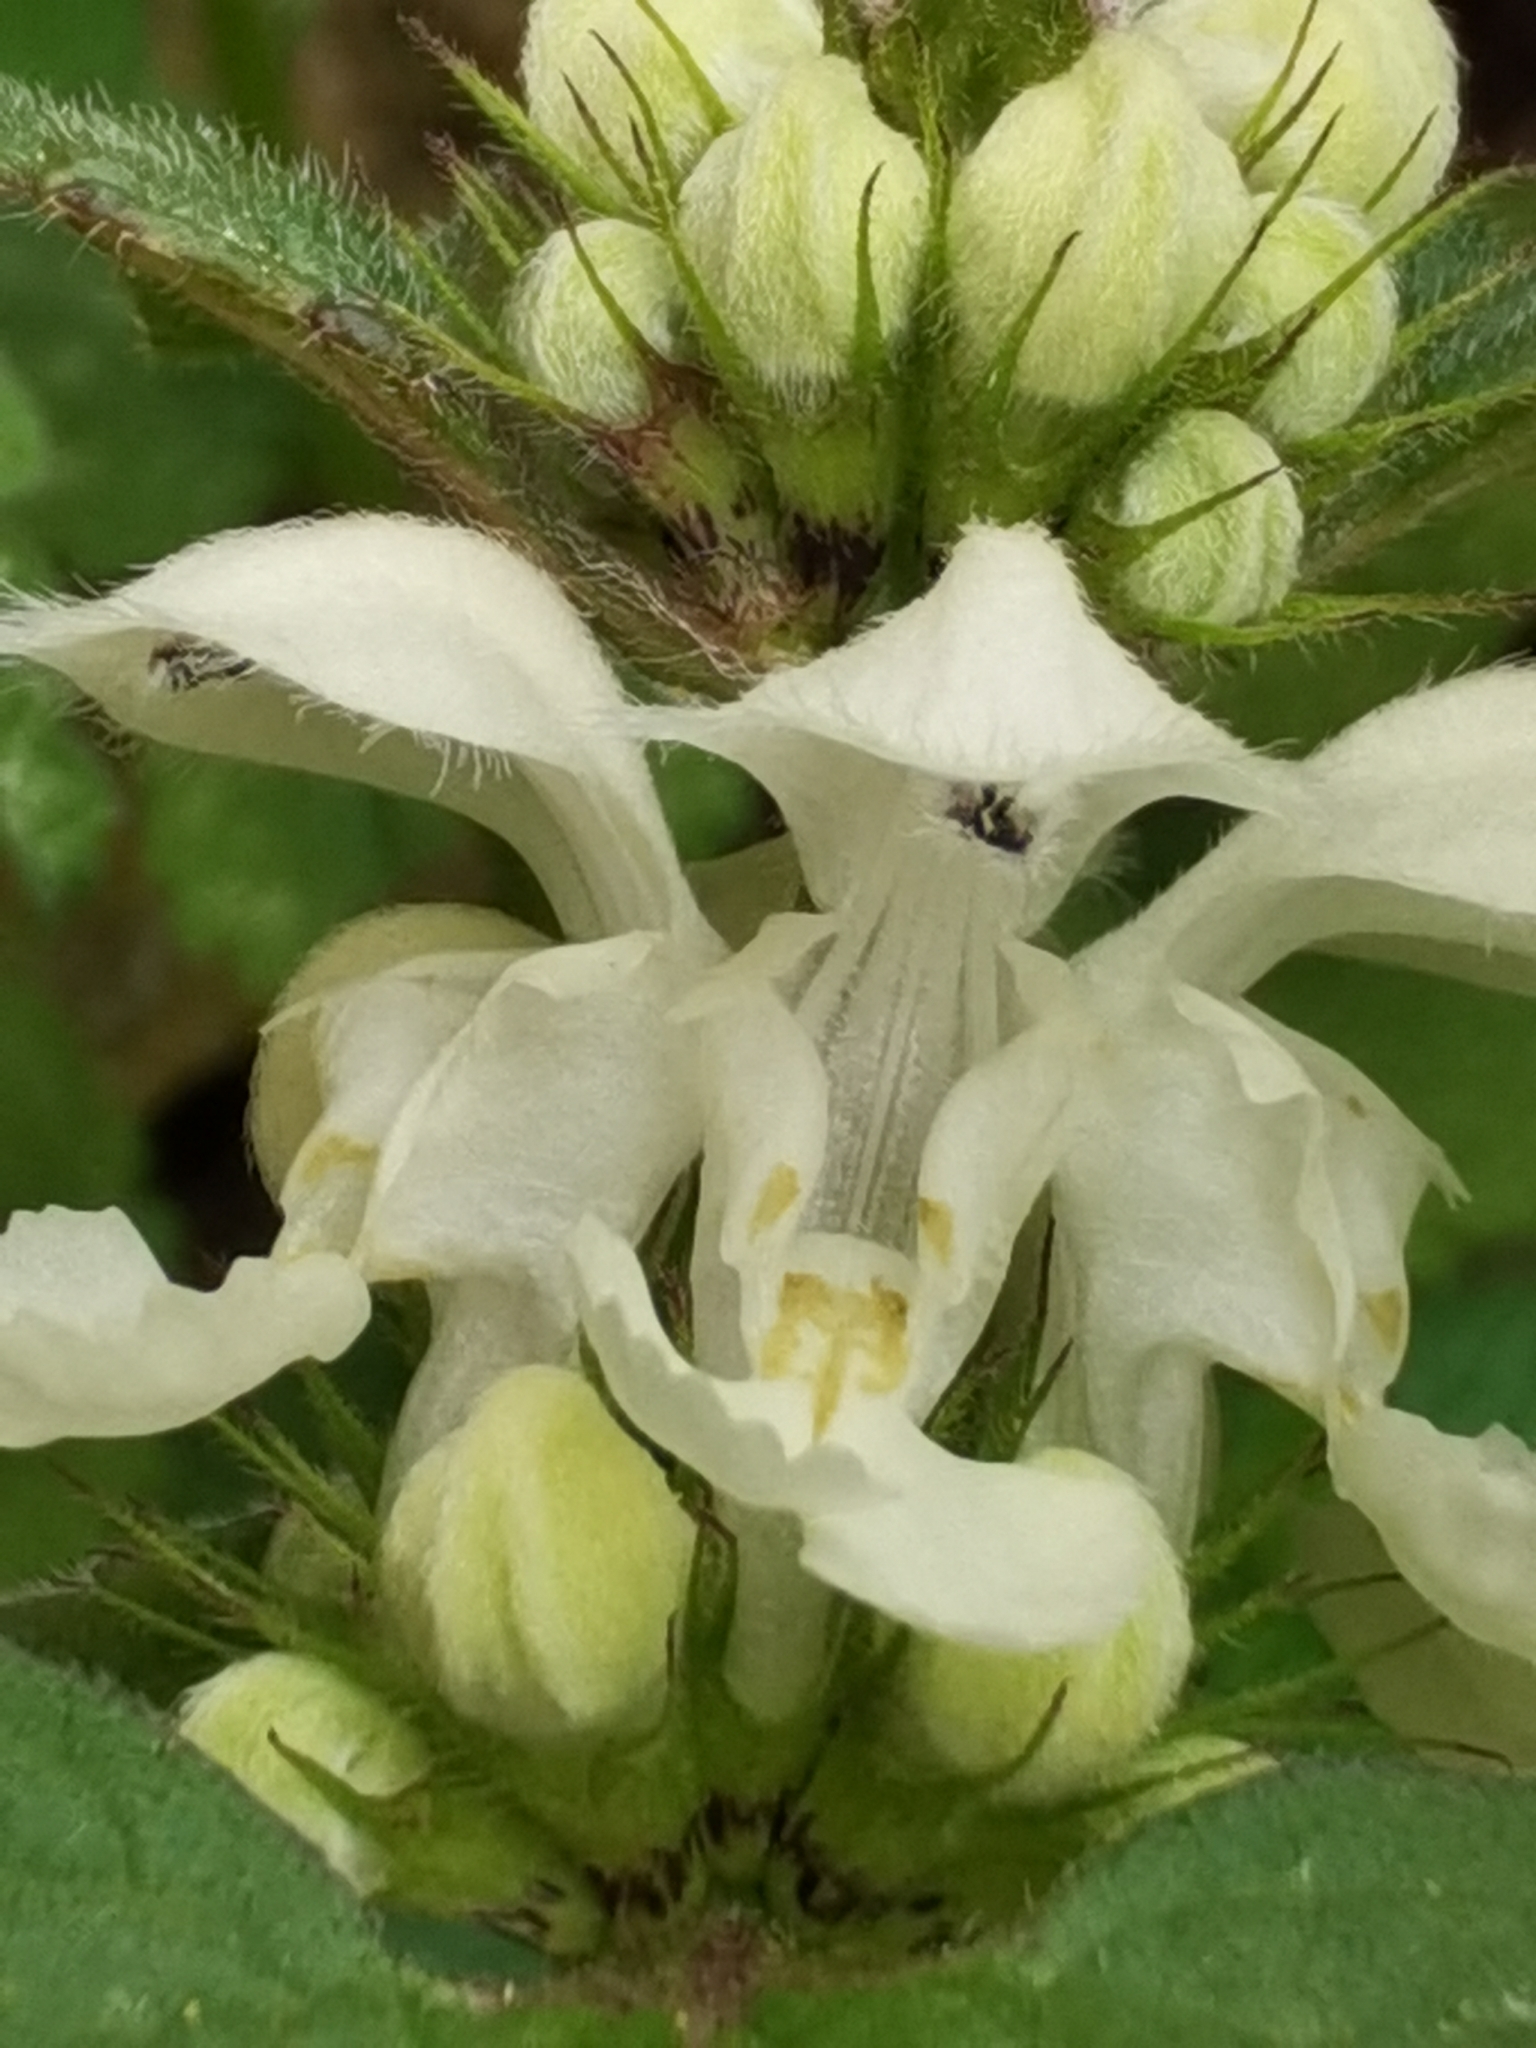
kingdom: Plantae
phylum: Tracheophyta
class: Magnoliopsida
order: Lamiales
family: Lamiaceae
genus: Lamium
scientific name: Lamium album
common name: White dead-nettle
